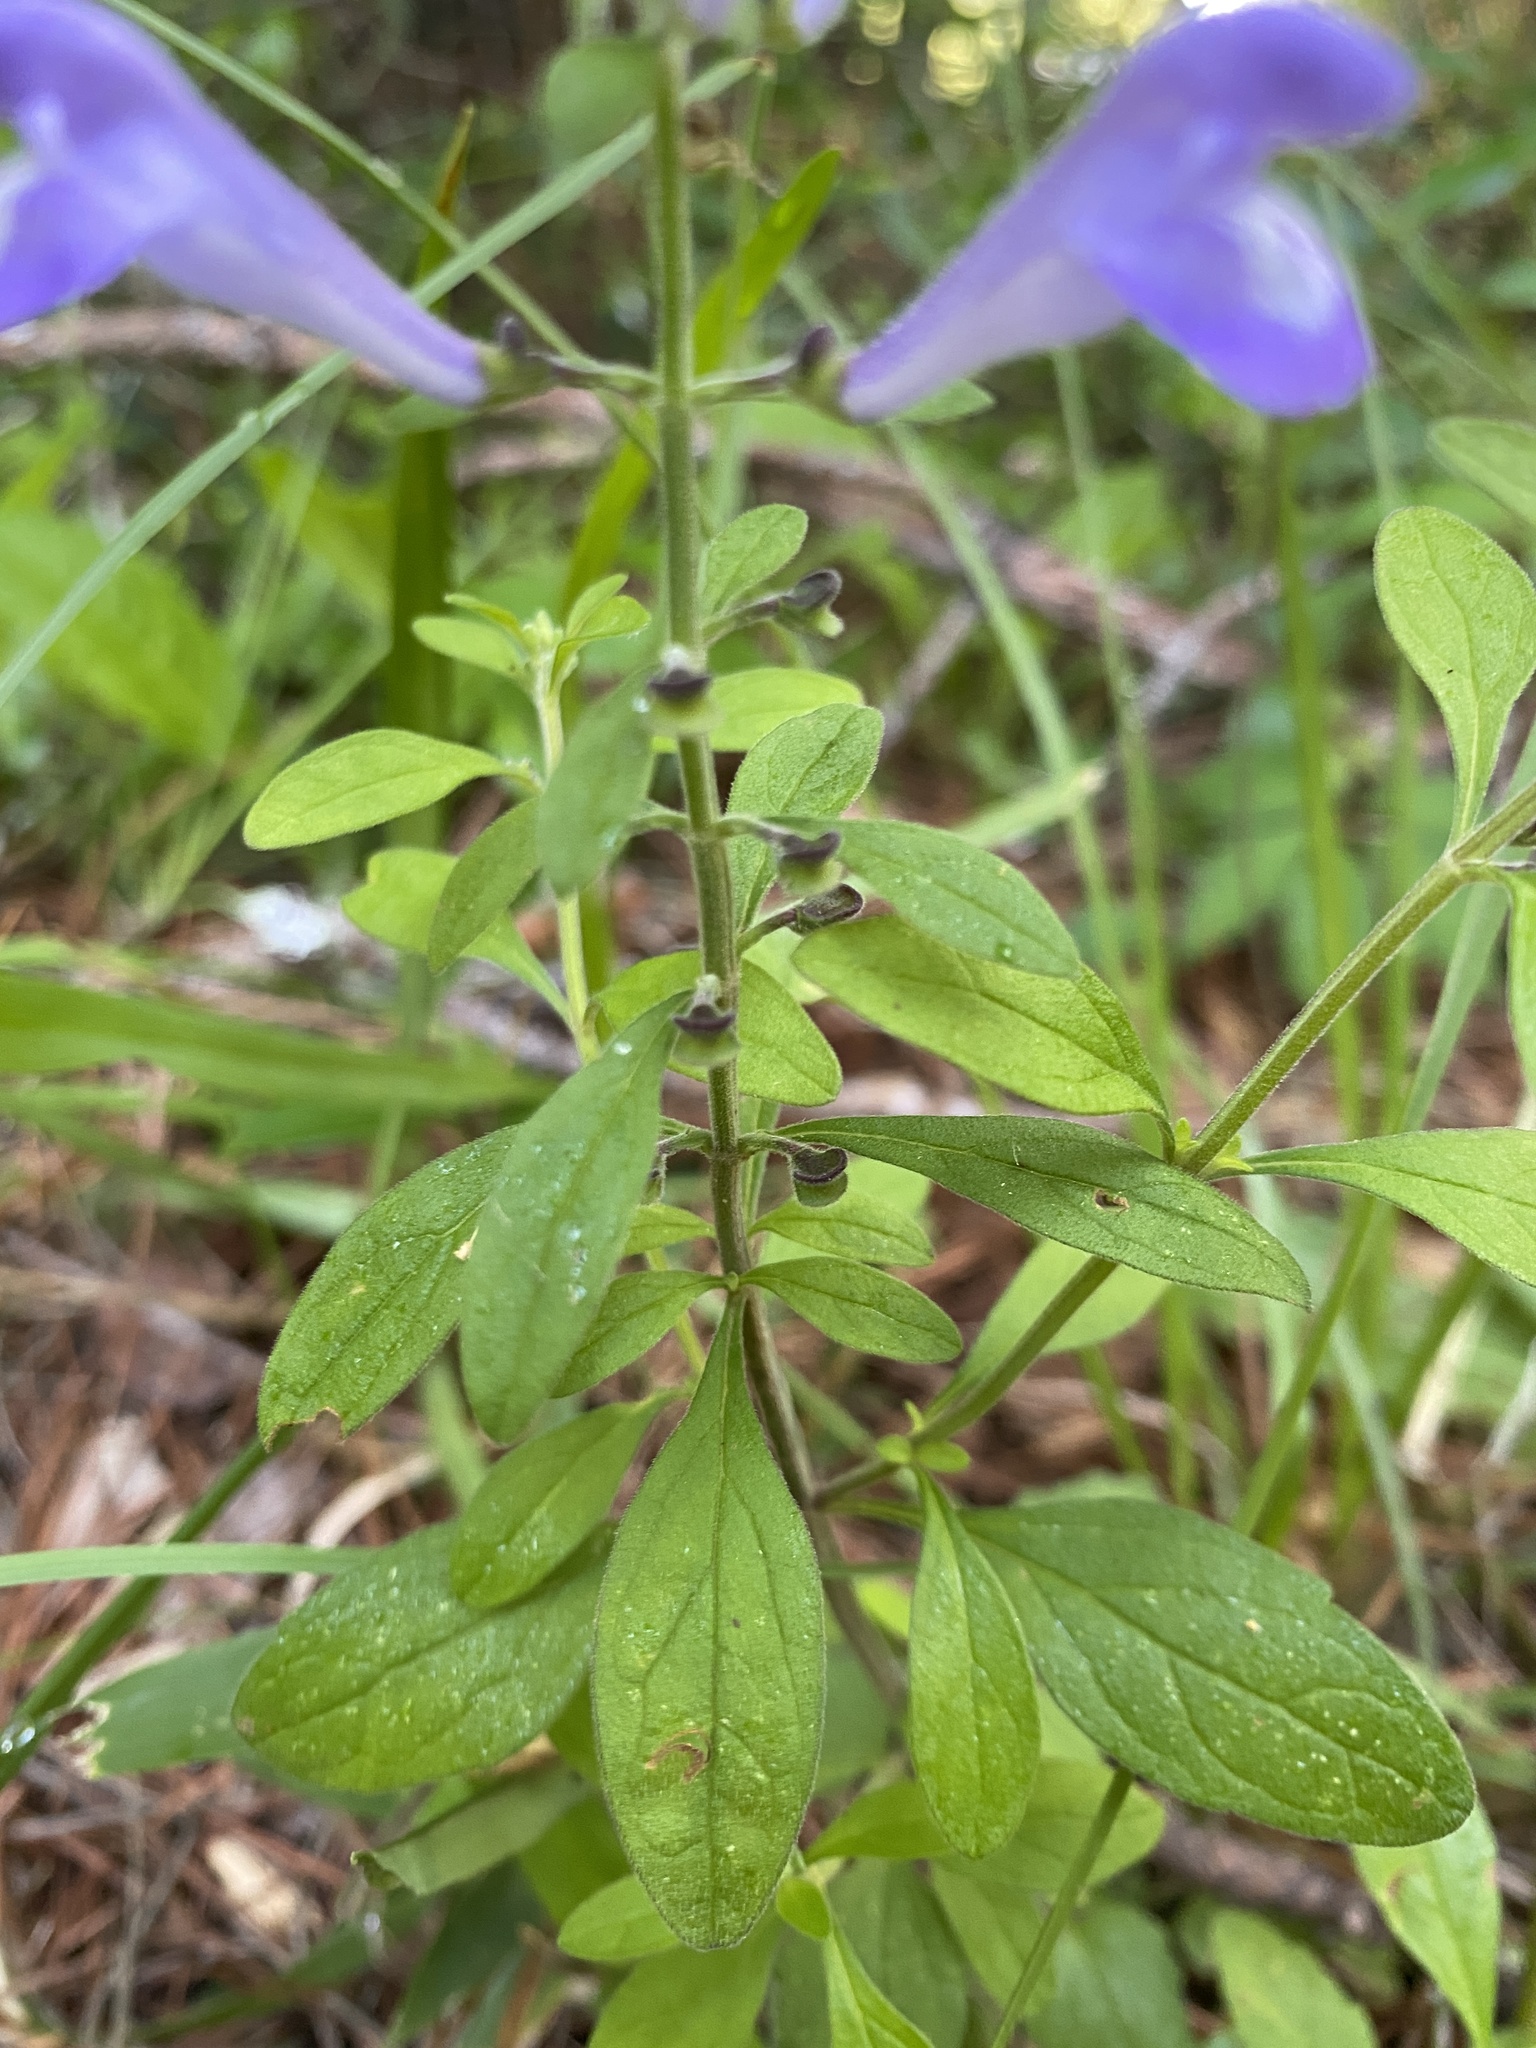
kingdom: Plantae
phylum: Tracheophyta
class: Magnoliopsida
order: Lamiales
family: Lamiaceae
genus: Scutellaria
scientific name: Scutellaria integrifolia
